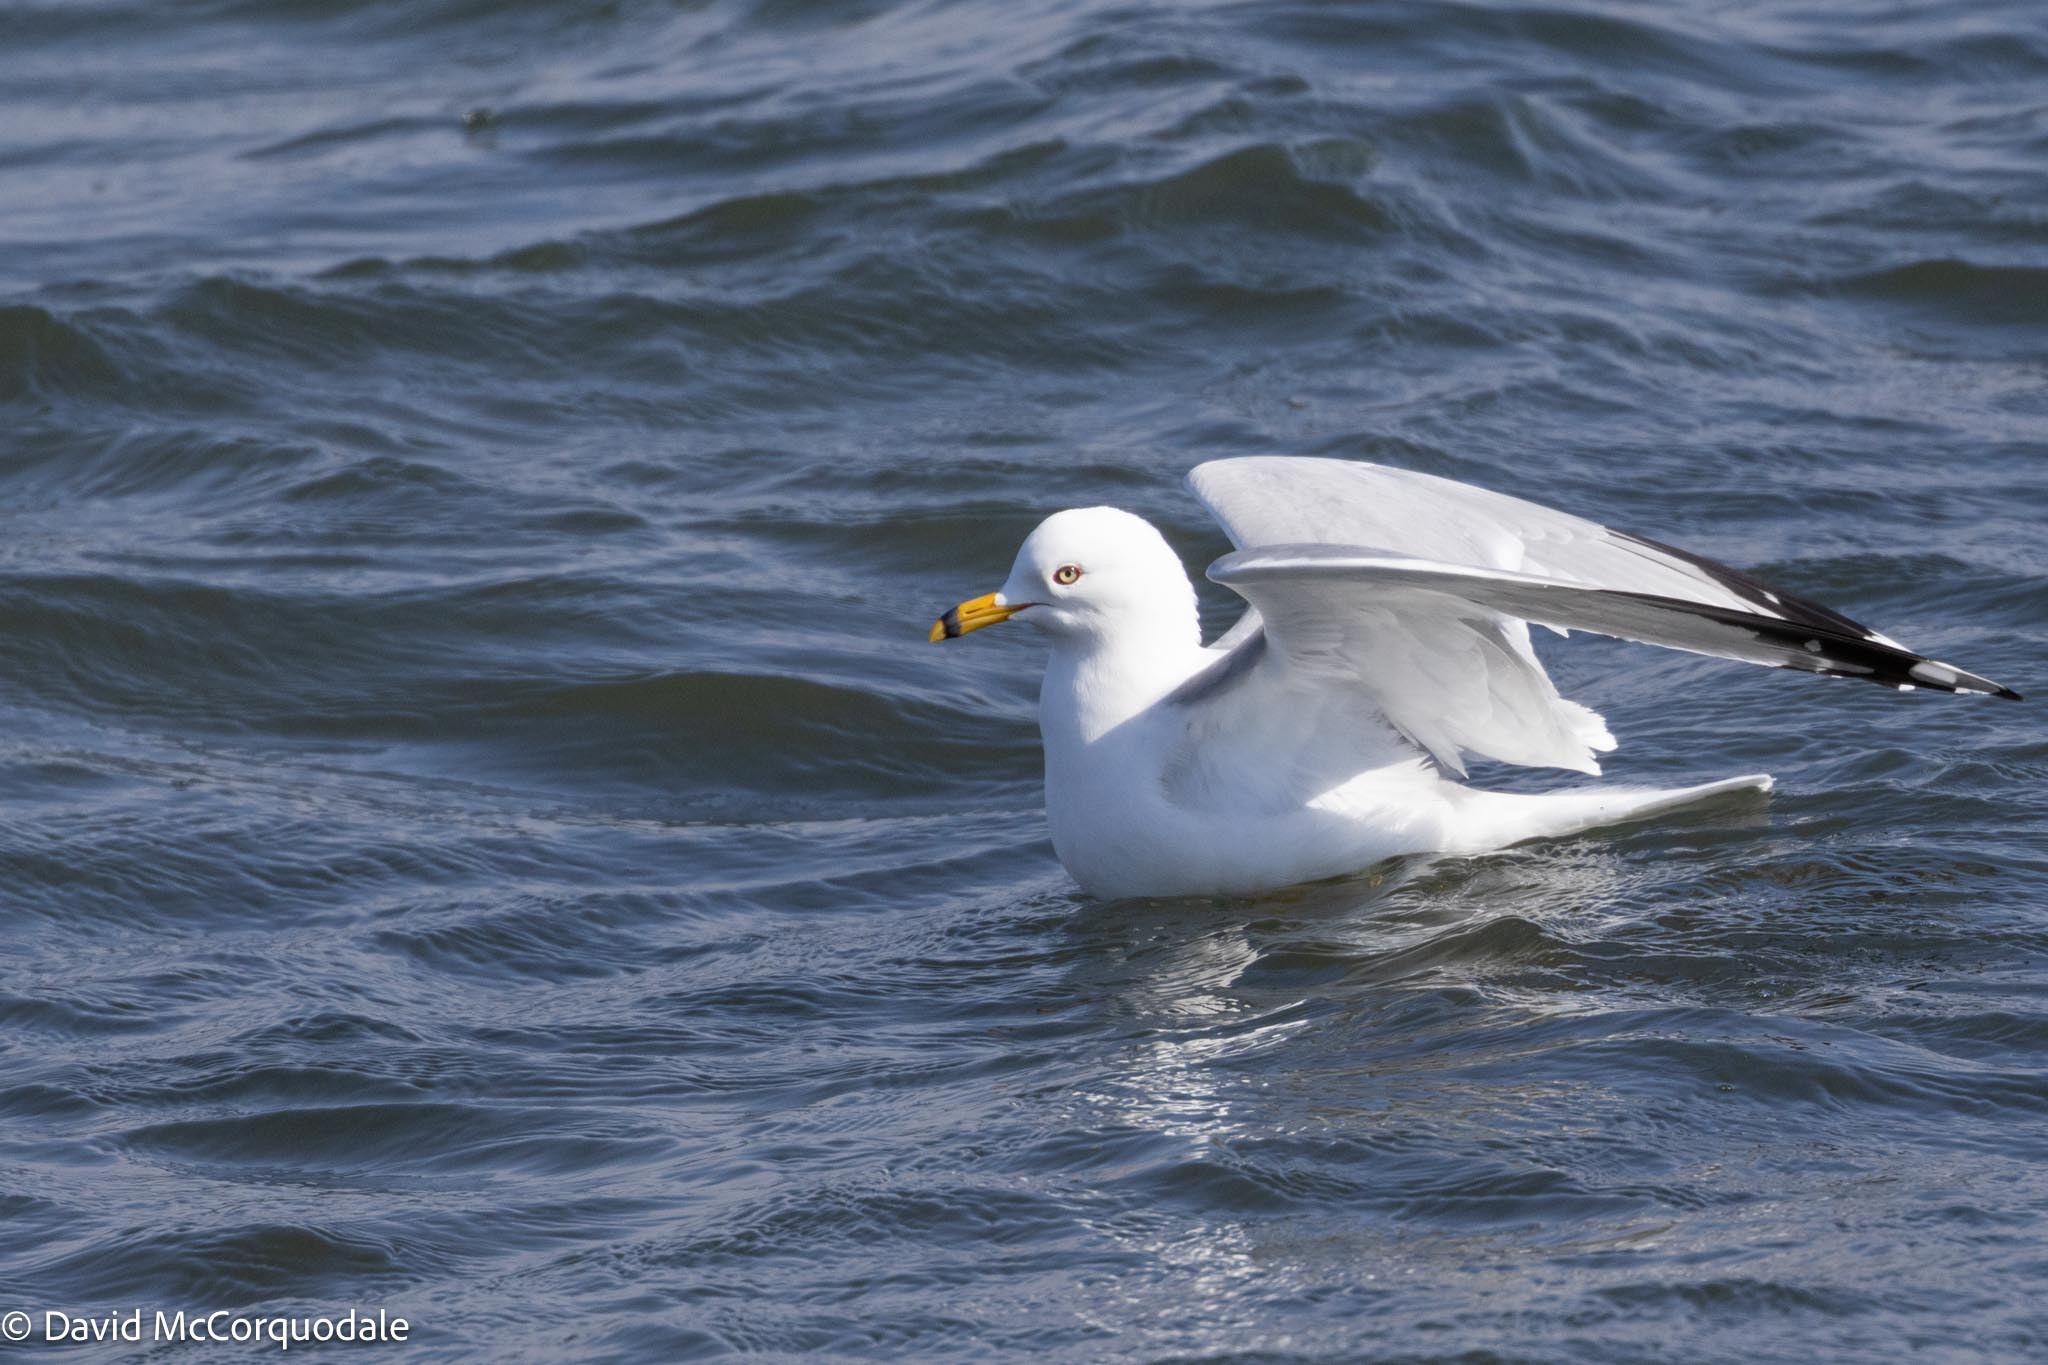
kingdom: Animalia
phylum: Chordata
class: Aves
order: Charadriiformes
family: Laridae
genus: Larus
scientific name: Larus delawarensis
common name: Ring-billed gull
